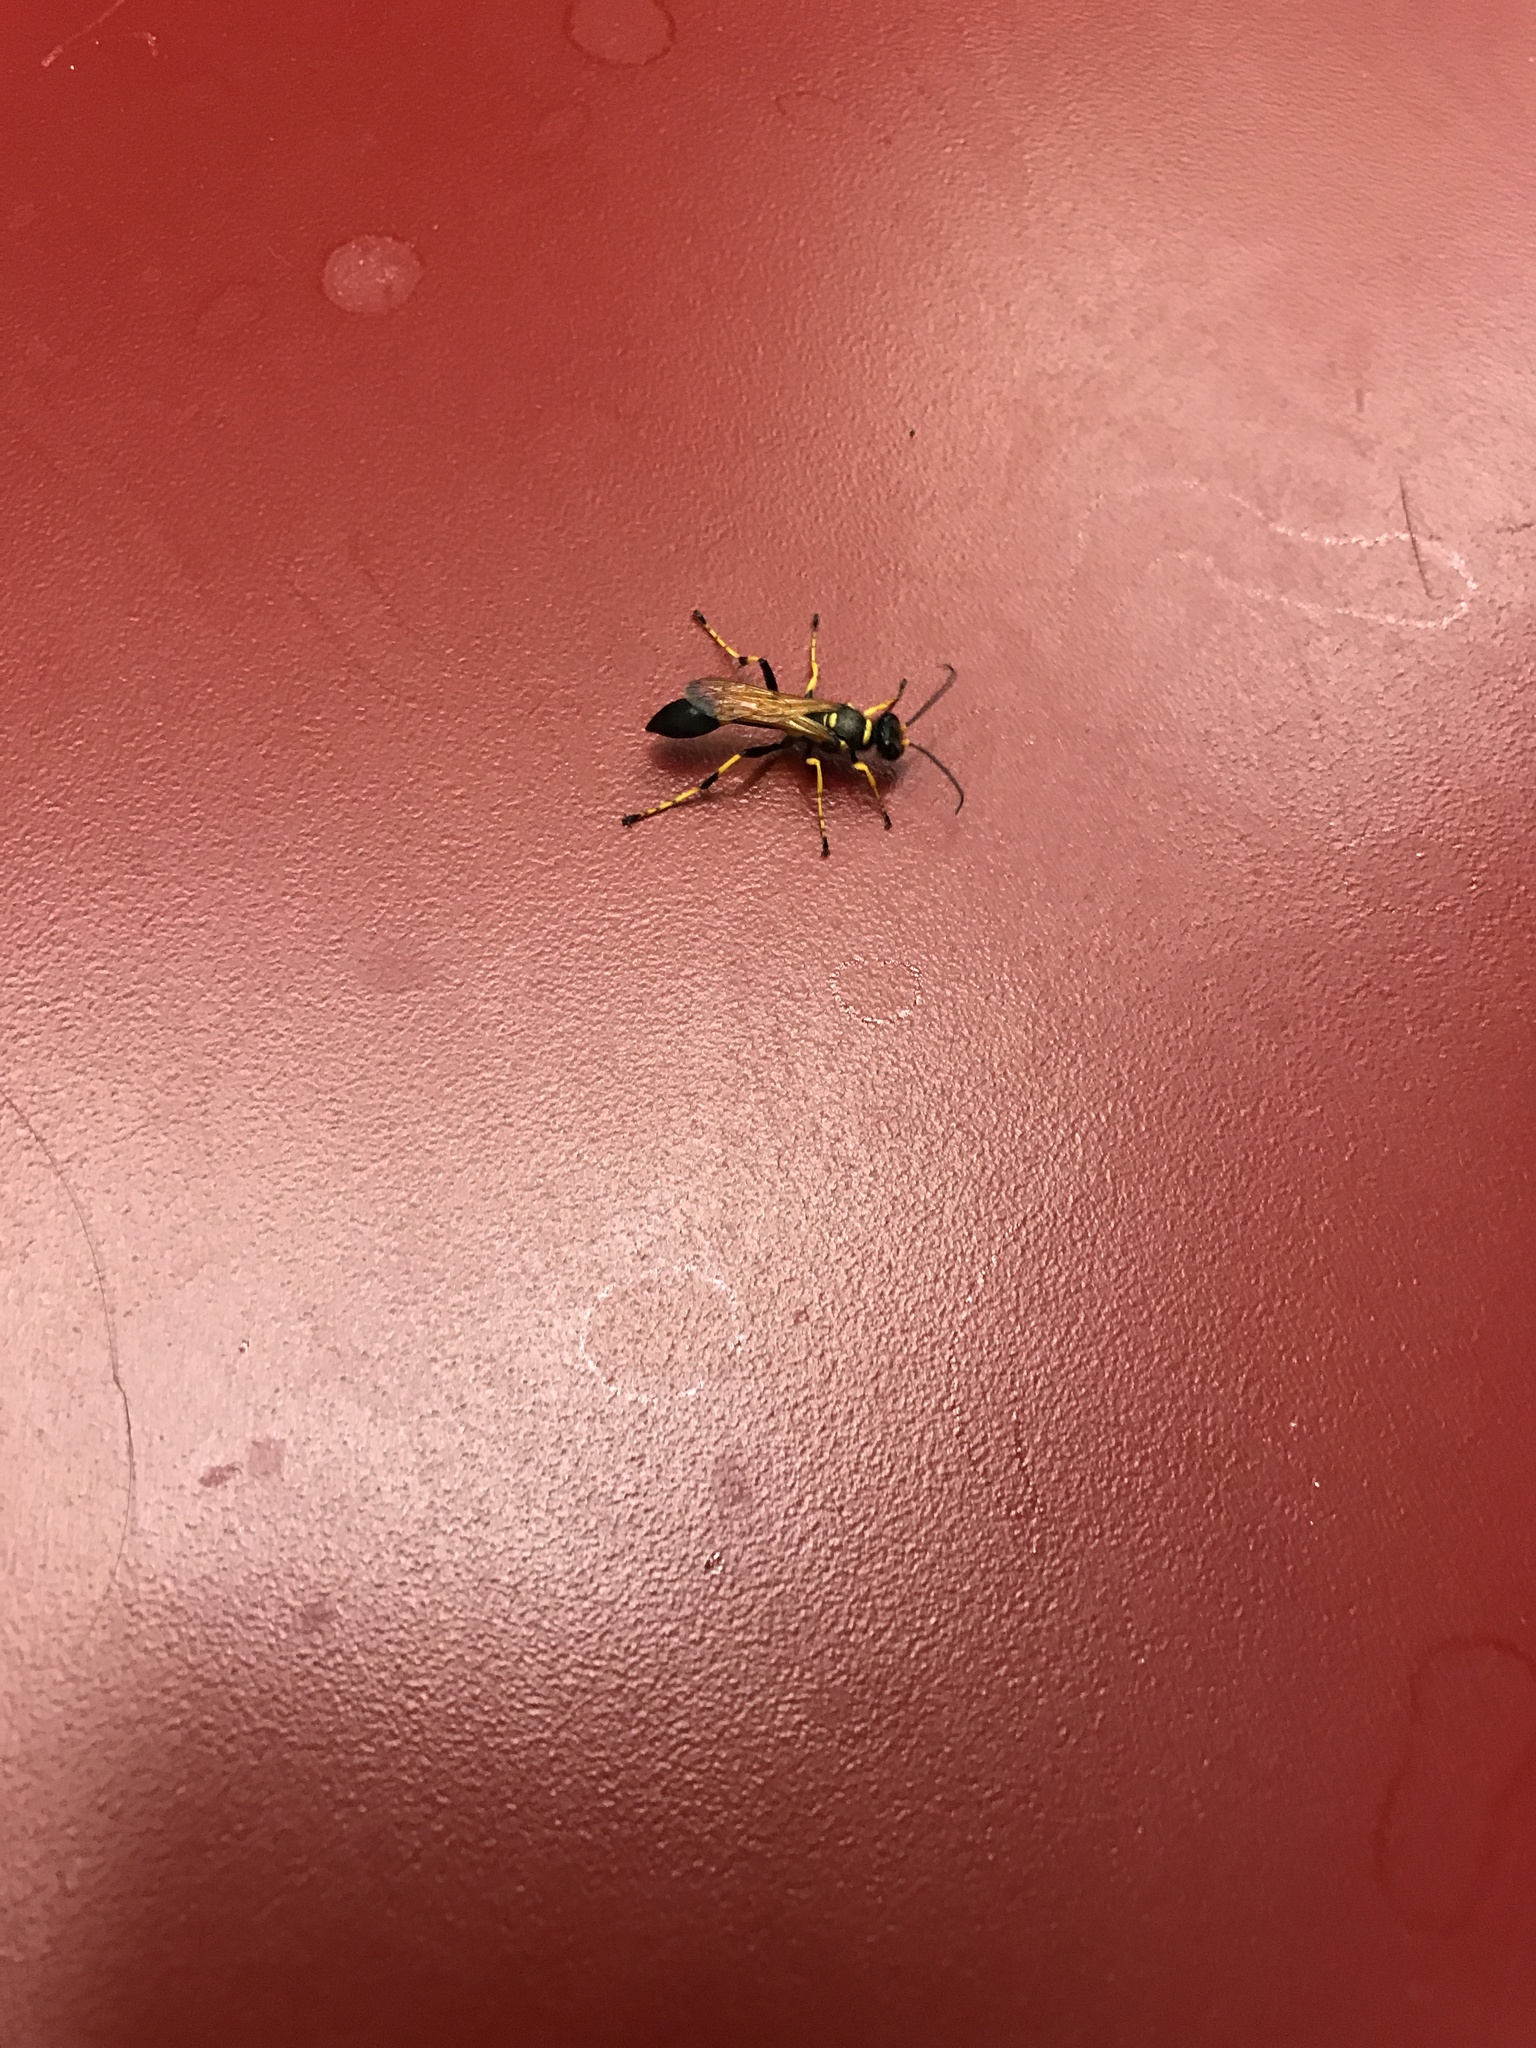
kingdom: Animalia
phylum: Arthropoda
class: Insecta
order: Hymenoptera
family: Sphecidae
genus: Sceliphron
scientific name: Sceliphron caementarium
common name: Mud dauber
